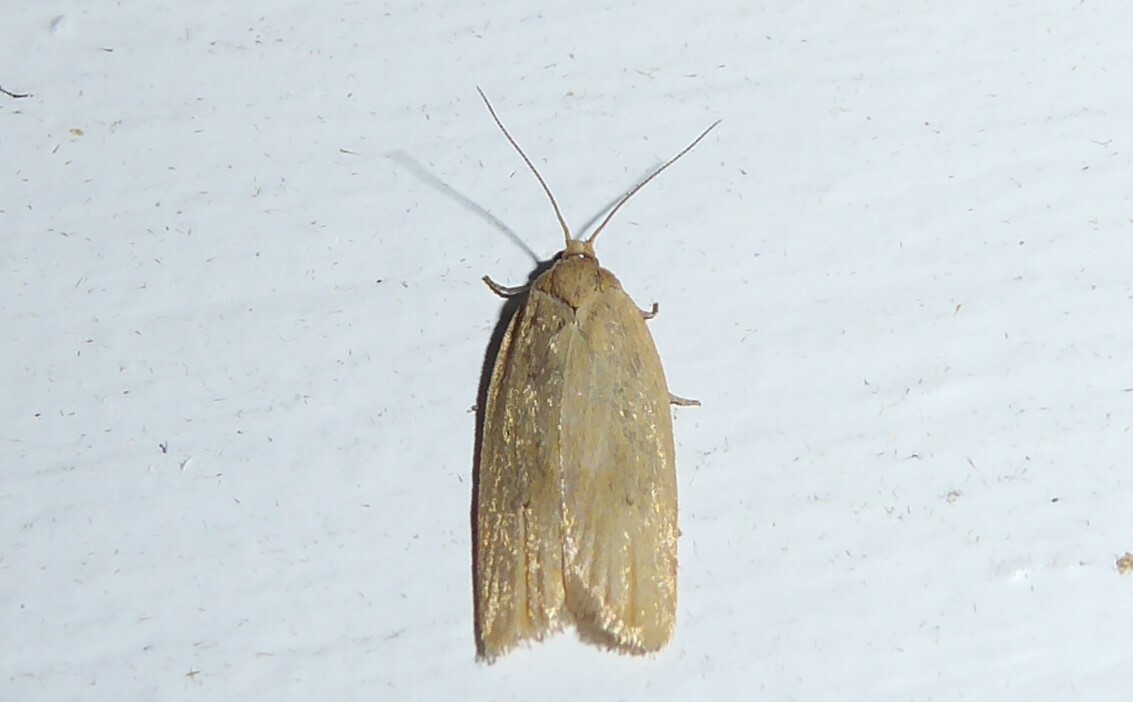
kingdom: Animalia
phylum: Arthropoda
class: Insecta
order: Lepidoptera
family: Tortricidae
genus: Clepsis
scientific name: Clepsis
